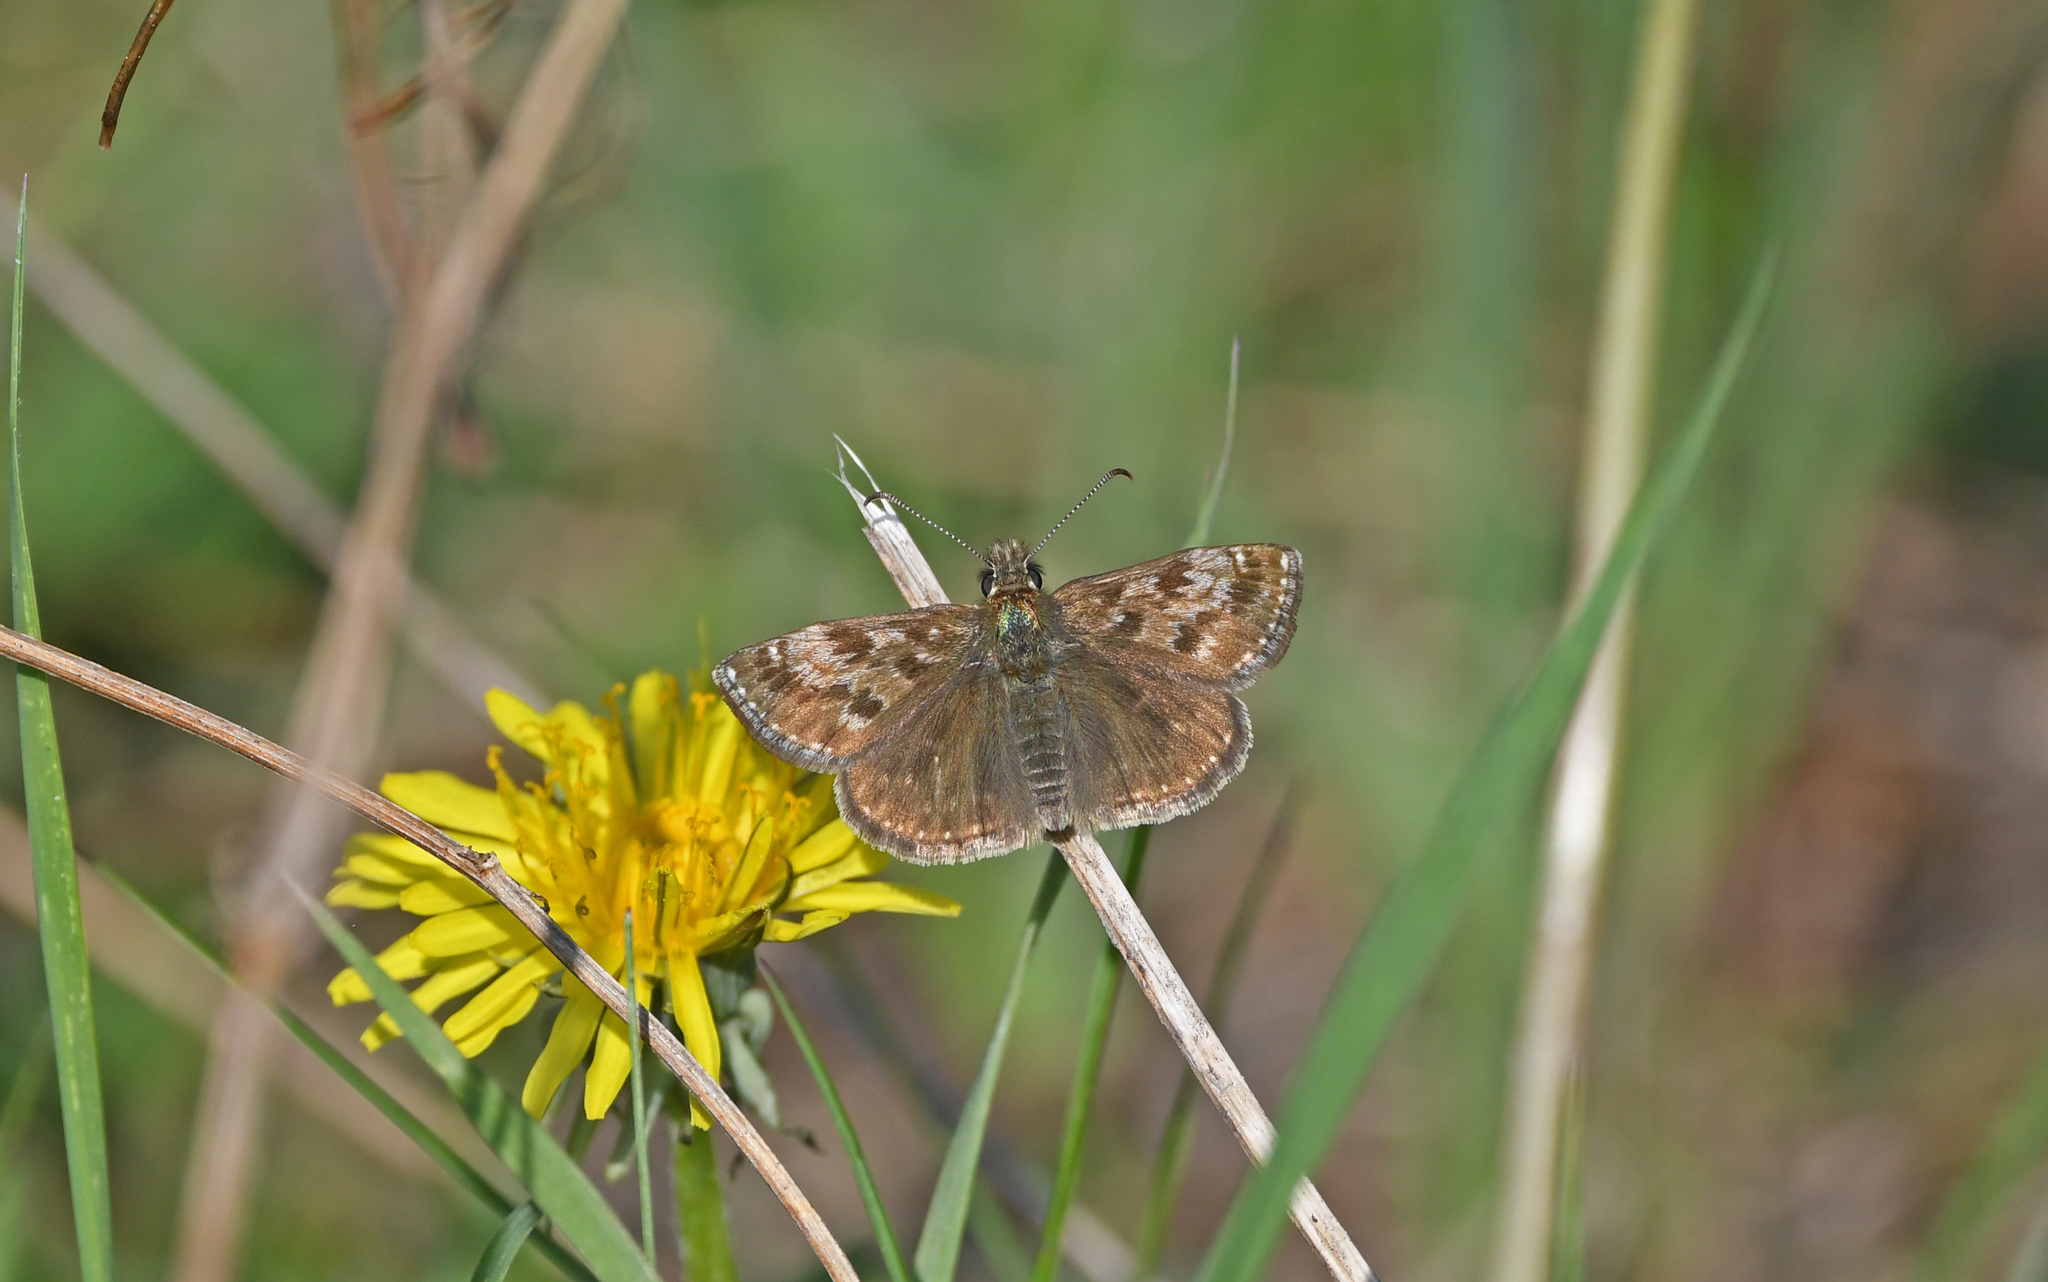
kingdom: Animalia
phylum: Arthropoda
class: Insecta
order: Lepidoptera
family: Hesperiidae
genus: Erynnis
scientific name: Erynnis tages
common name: Dingy skipper
